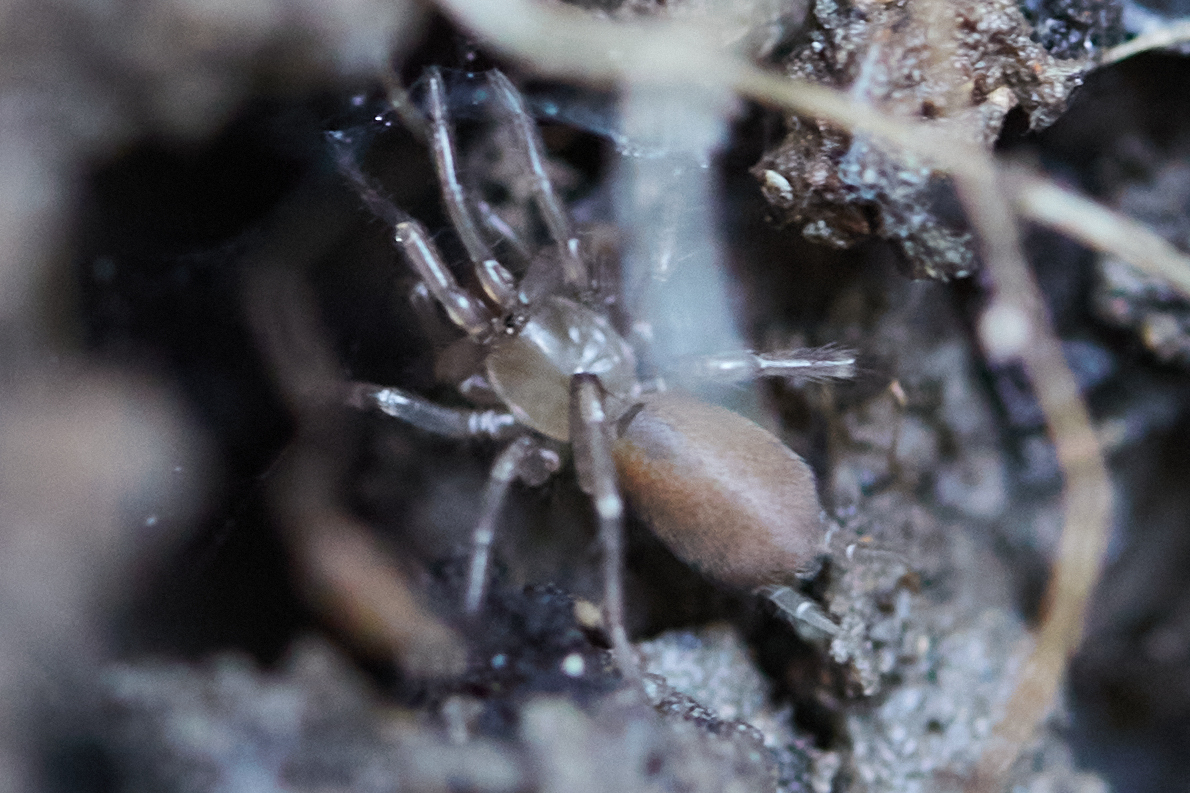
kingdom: Animalia
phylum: Arthropoda
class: Arachnida
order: Araneae
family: Megahexuridae
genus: Megahexura
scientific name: Megahexura fulva
